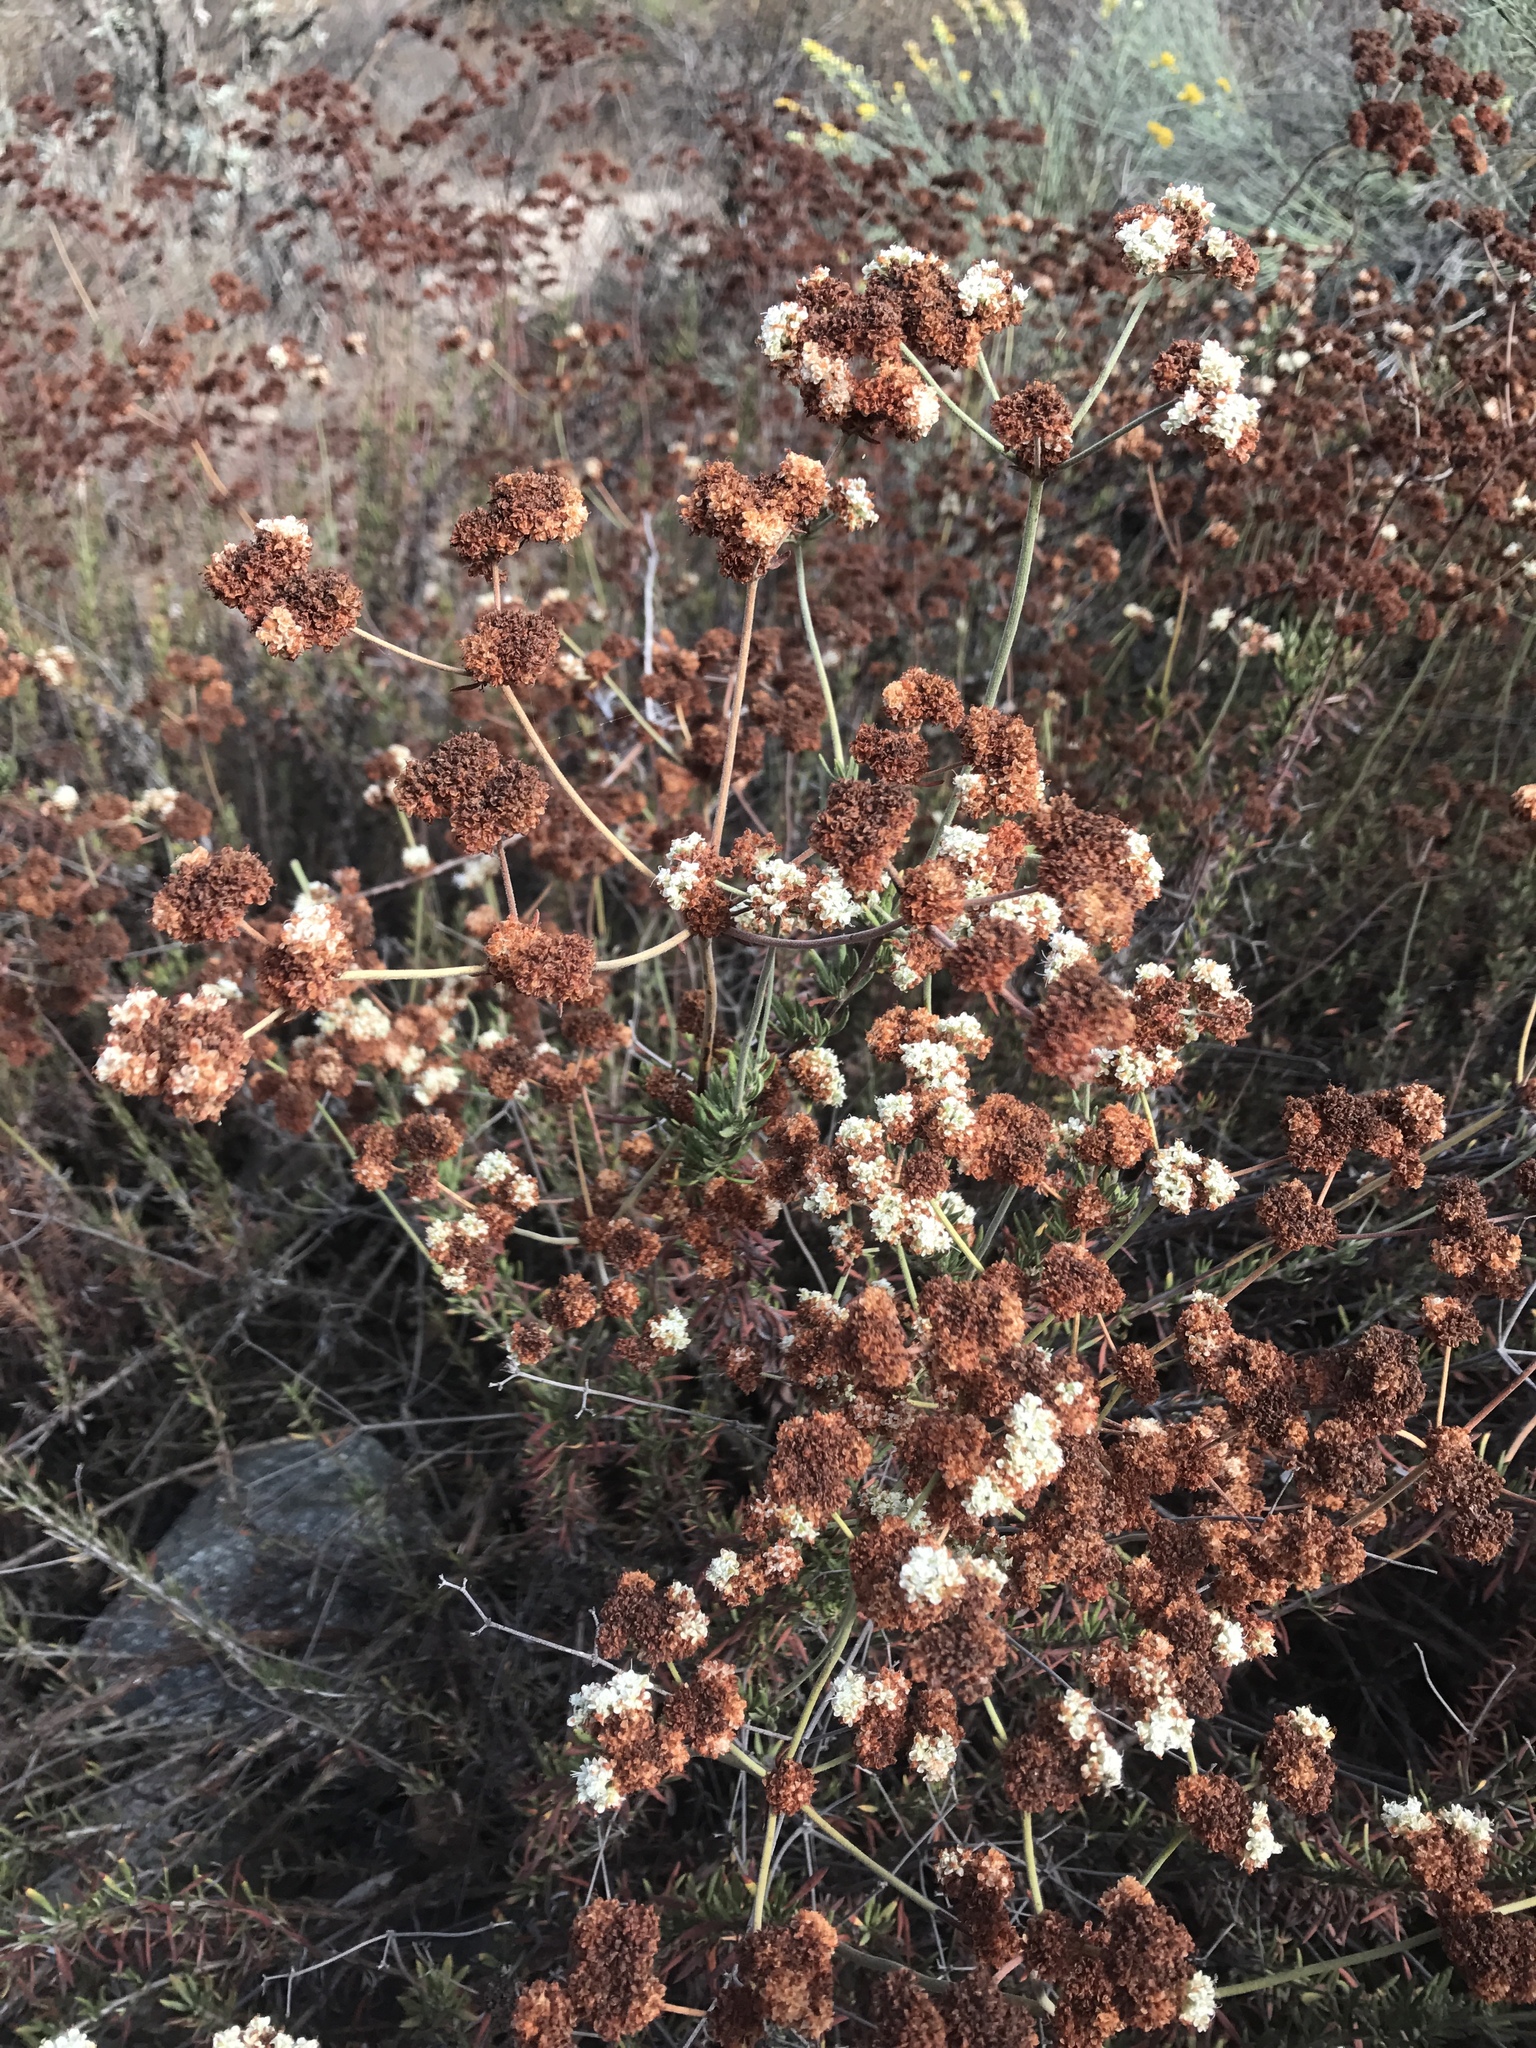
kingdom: Plantae
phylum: Tracheophyta
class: Magnoliopsida
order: Caryophyllales
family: Polygonaceae
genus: Eriogonum
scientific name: Eriogonum fasciculatum
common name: California wild buckwheat
